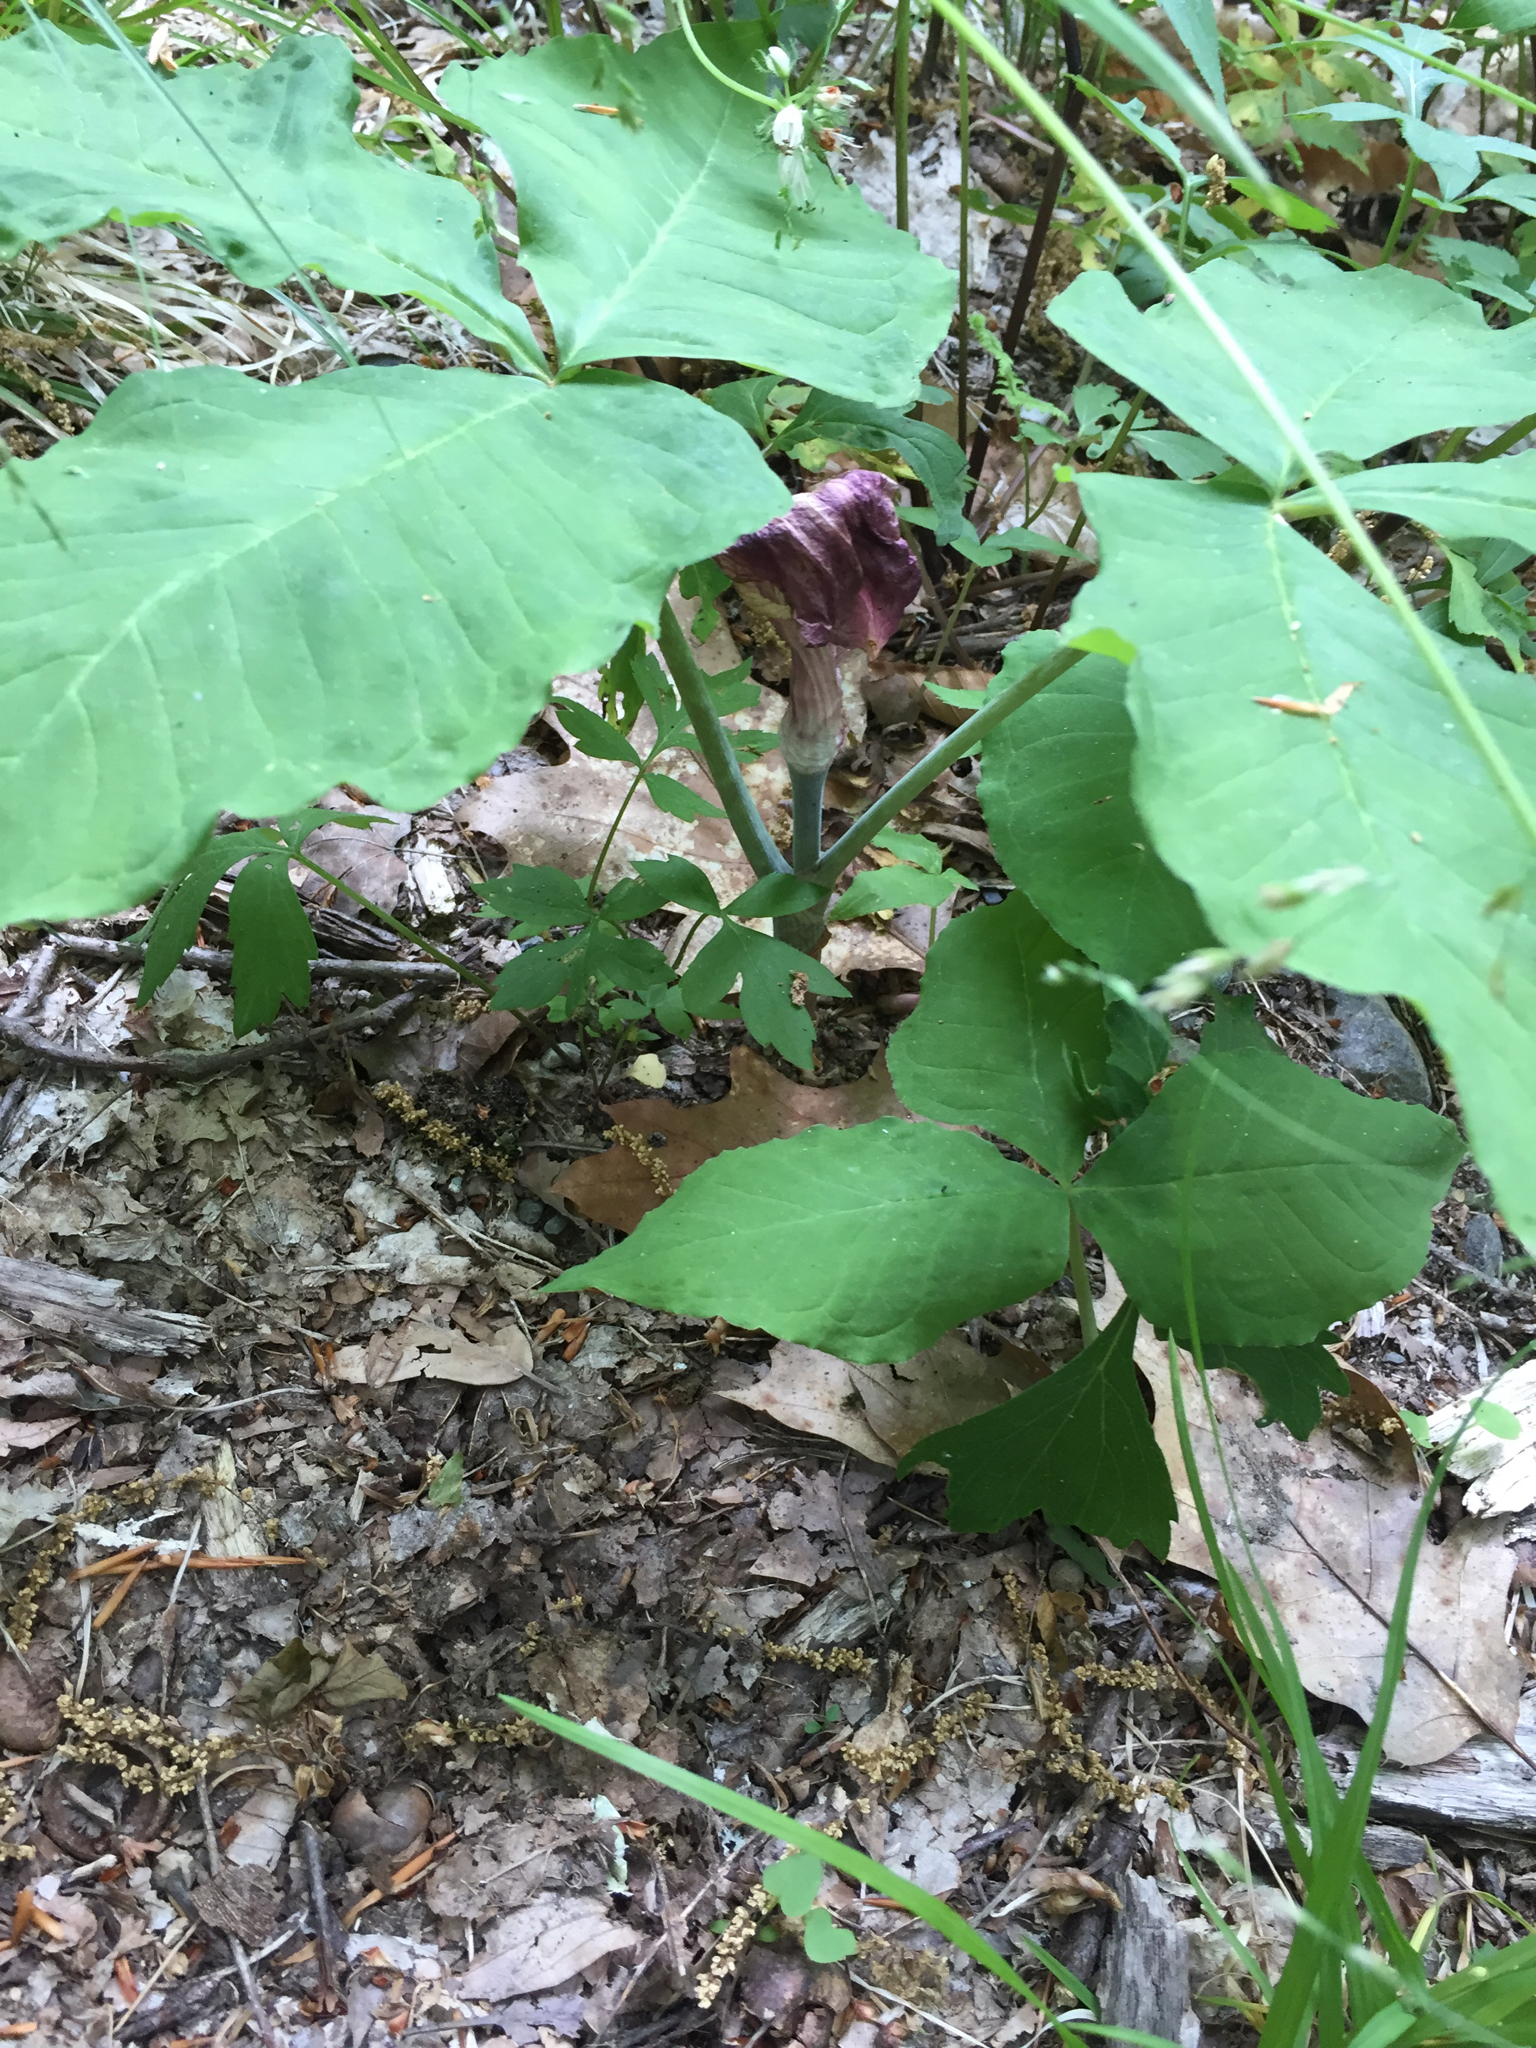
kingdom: Plantae
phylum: Tracheophyta
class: Liliopsida
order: Alismatales
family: Araceae
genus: Arisaema
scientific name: Arisaema triphyllum
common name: Jack-in-the-pulpit
